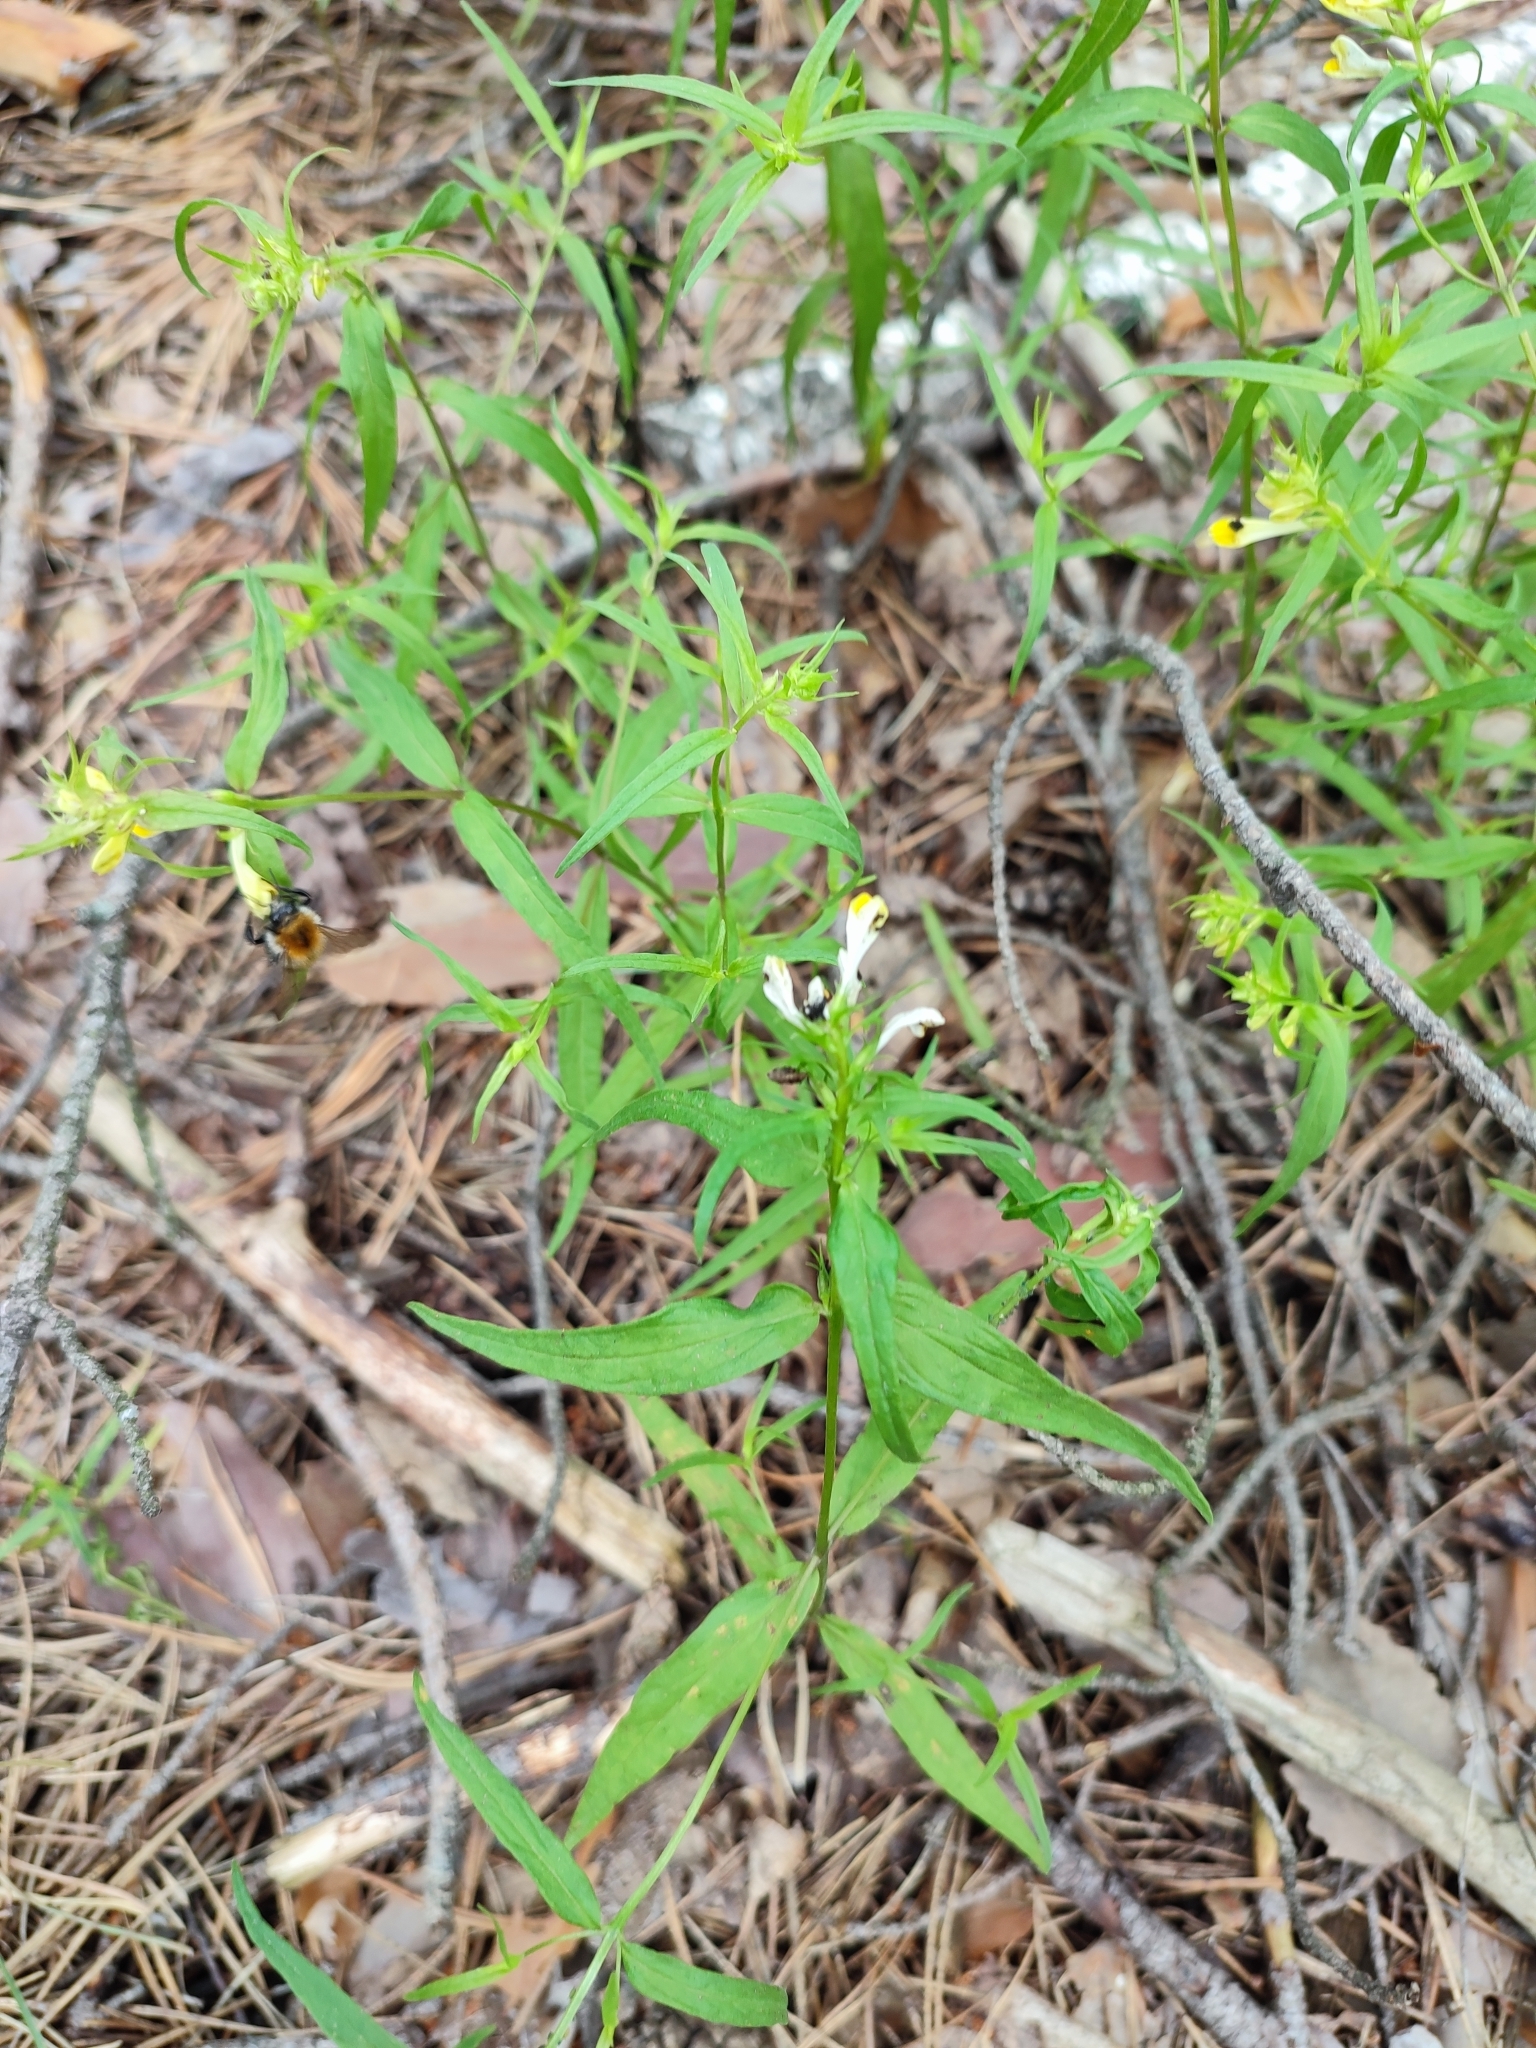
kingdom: Plantae
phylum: Tracheophyta
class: Magnoliopsida
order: Lamiales
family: Orobanchaceae
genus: Melampyrum
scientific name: Melampyrum pratense
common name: Common cow-wheat
